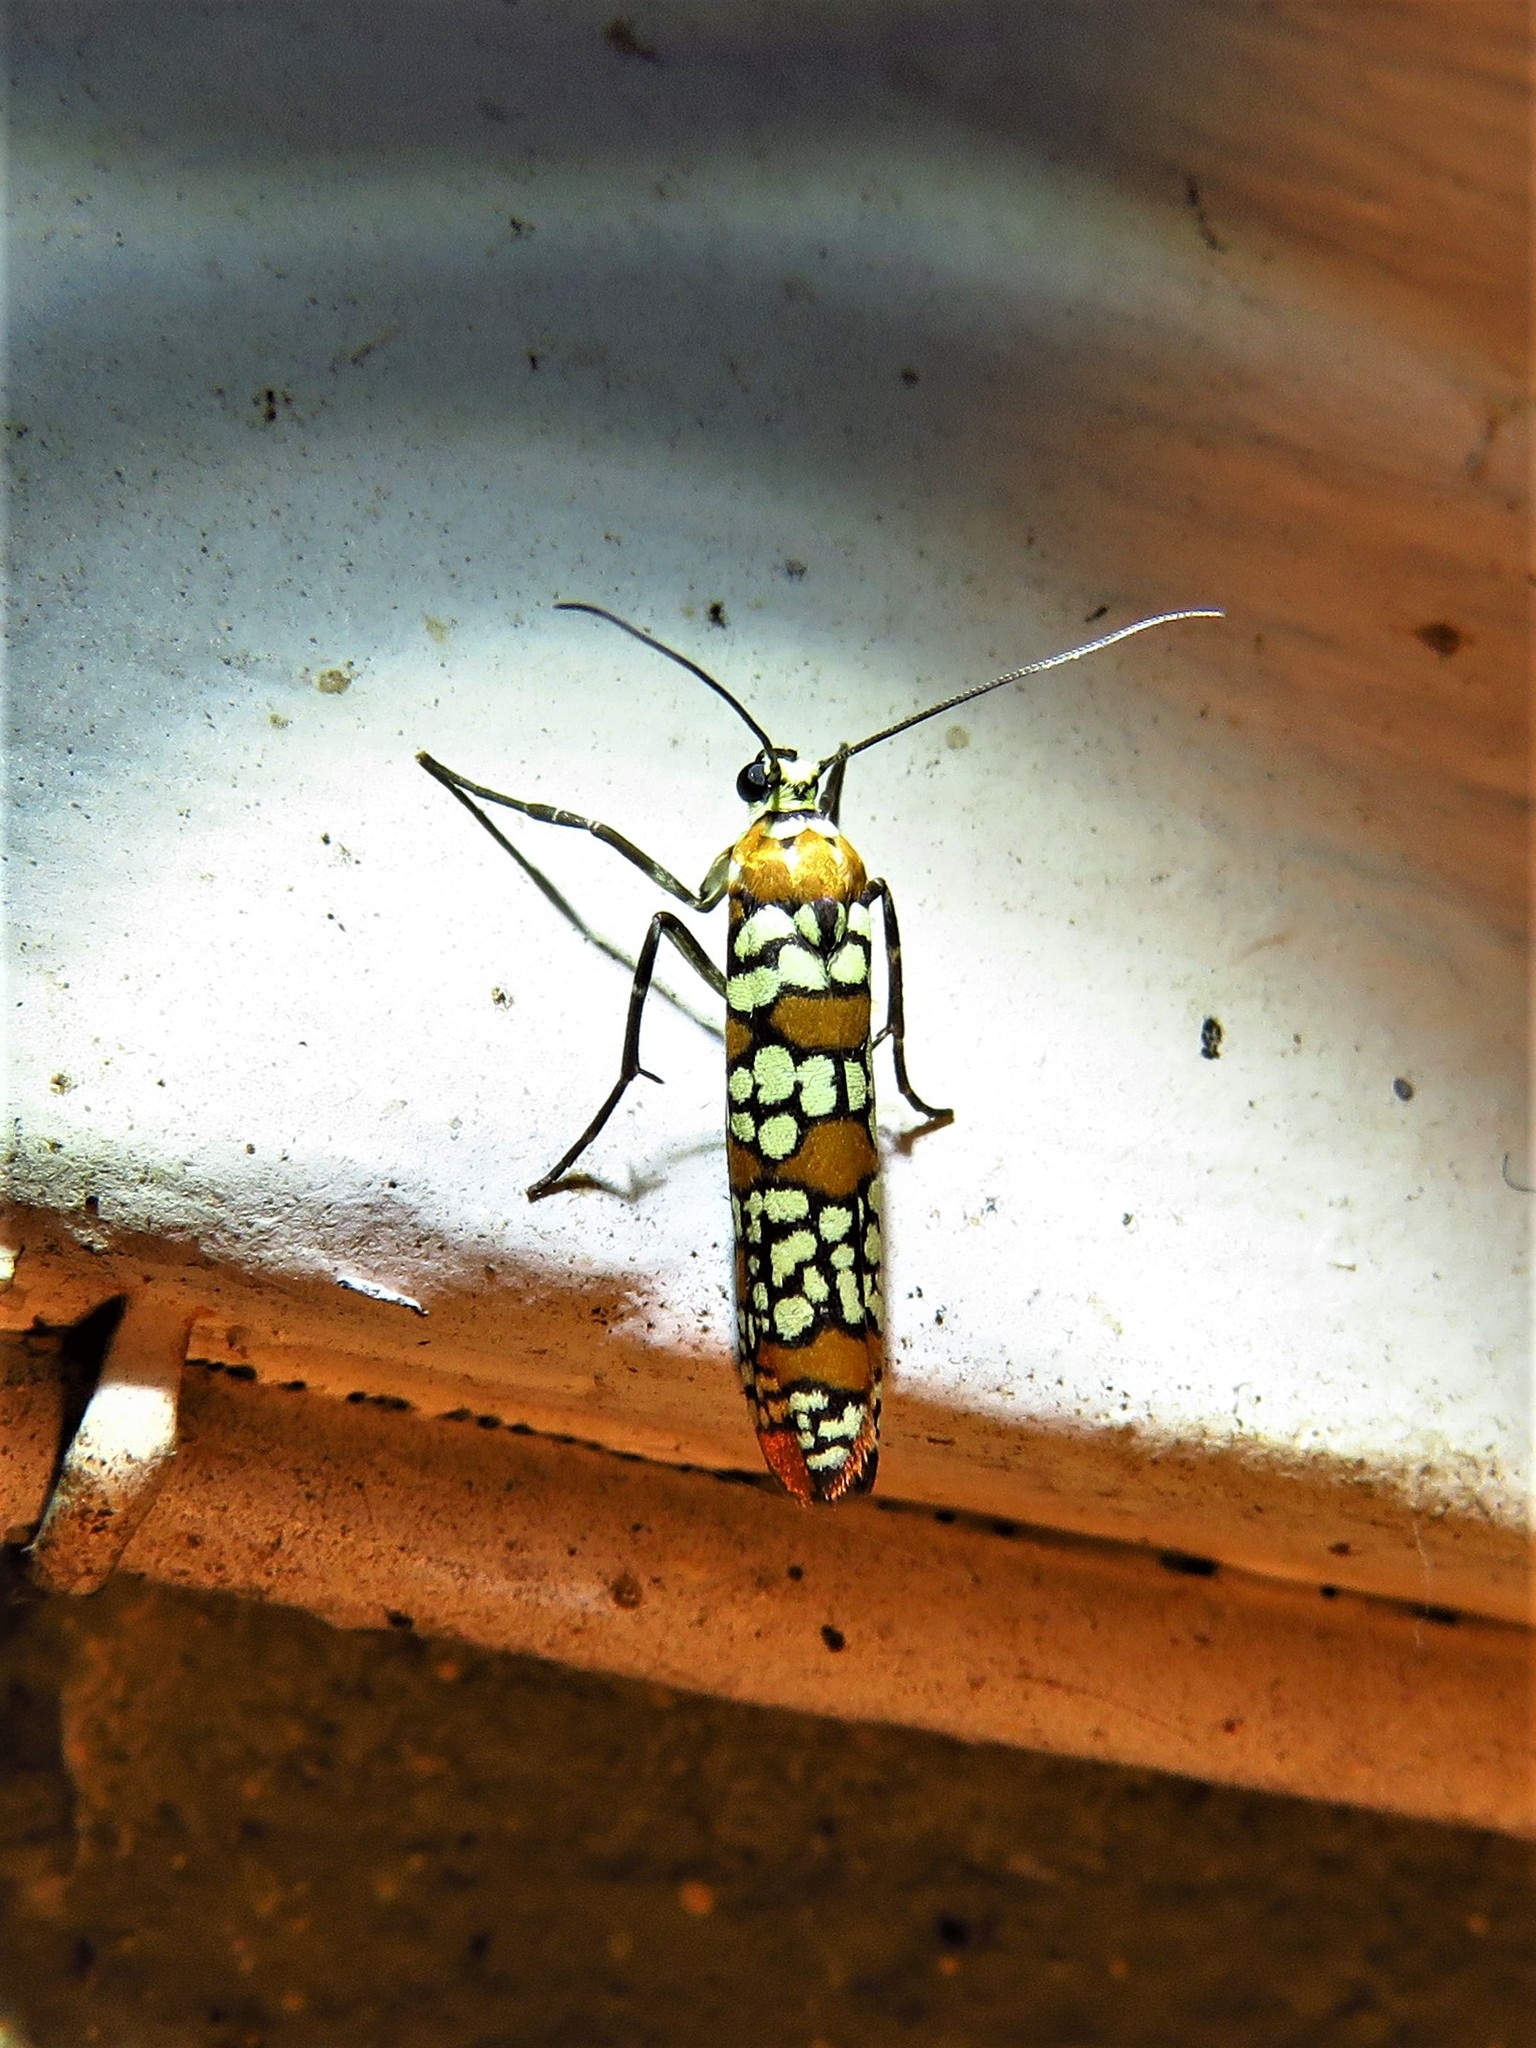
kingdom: Animalia
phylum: Arthropoda
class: Insecta
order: Lepidoptera
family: Attevidae
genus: Atteva
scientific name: Atteva punctella
